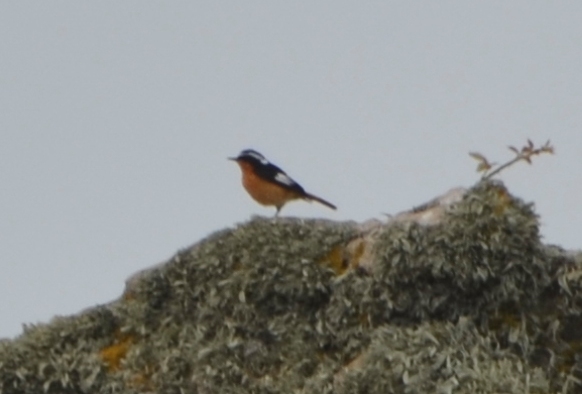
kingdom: Animalia
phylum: Chordata
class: Aves
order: Passeriformes
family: Muscicapidae
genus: Phoenicurus
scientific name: Phoenicurus moussieri
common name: Moussier's redstart
